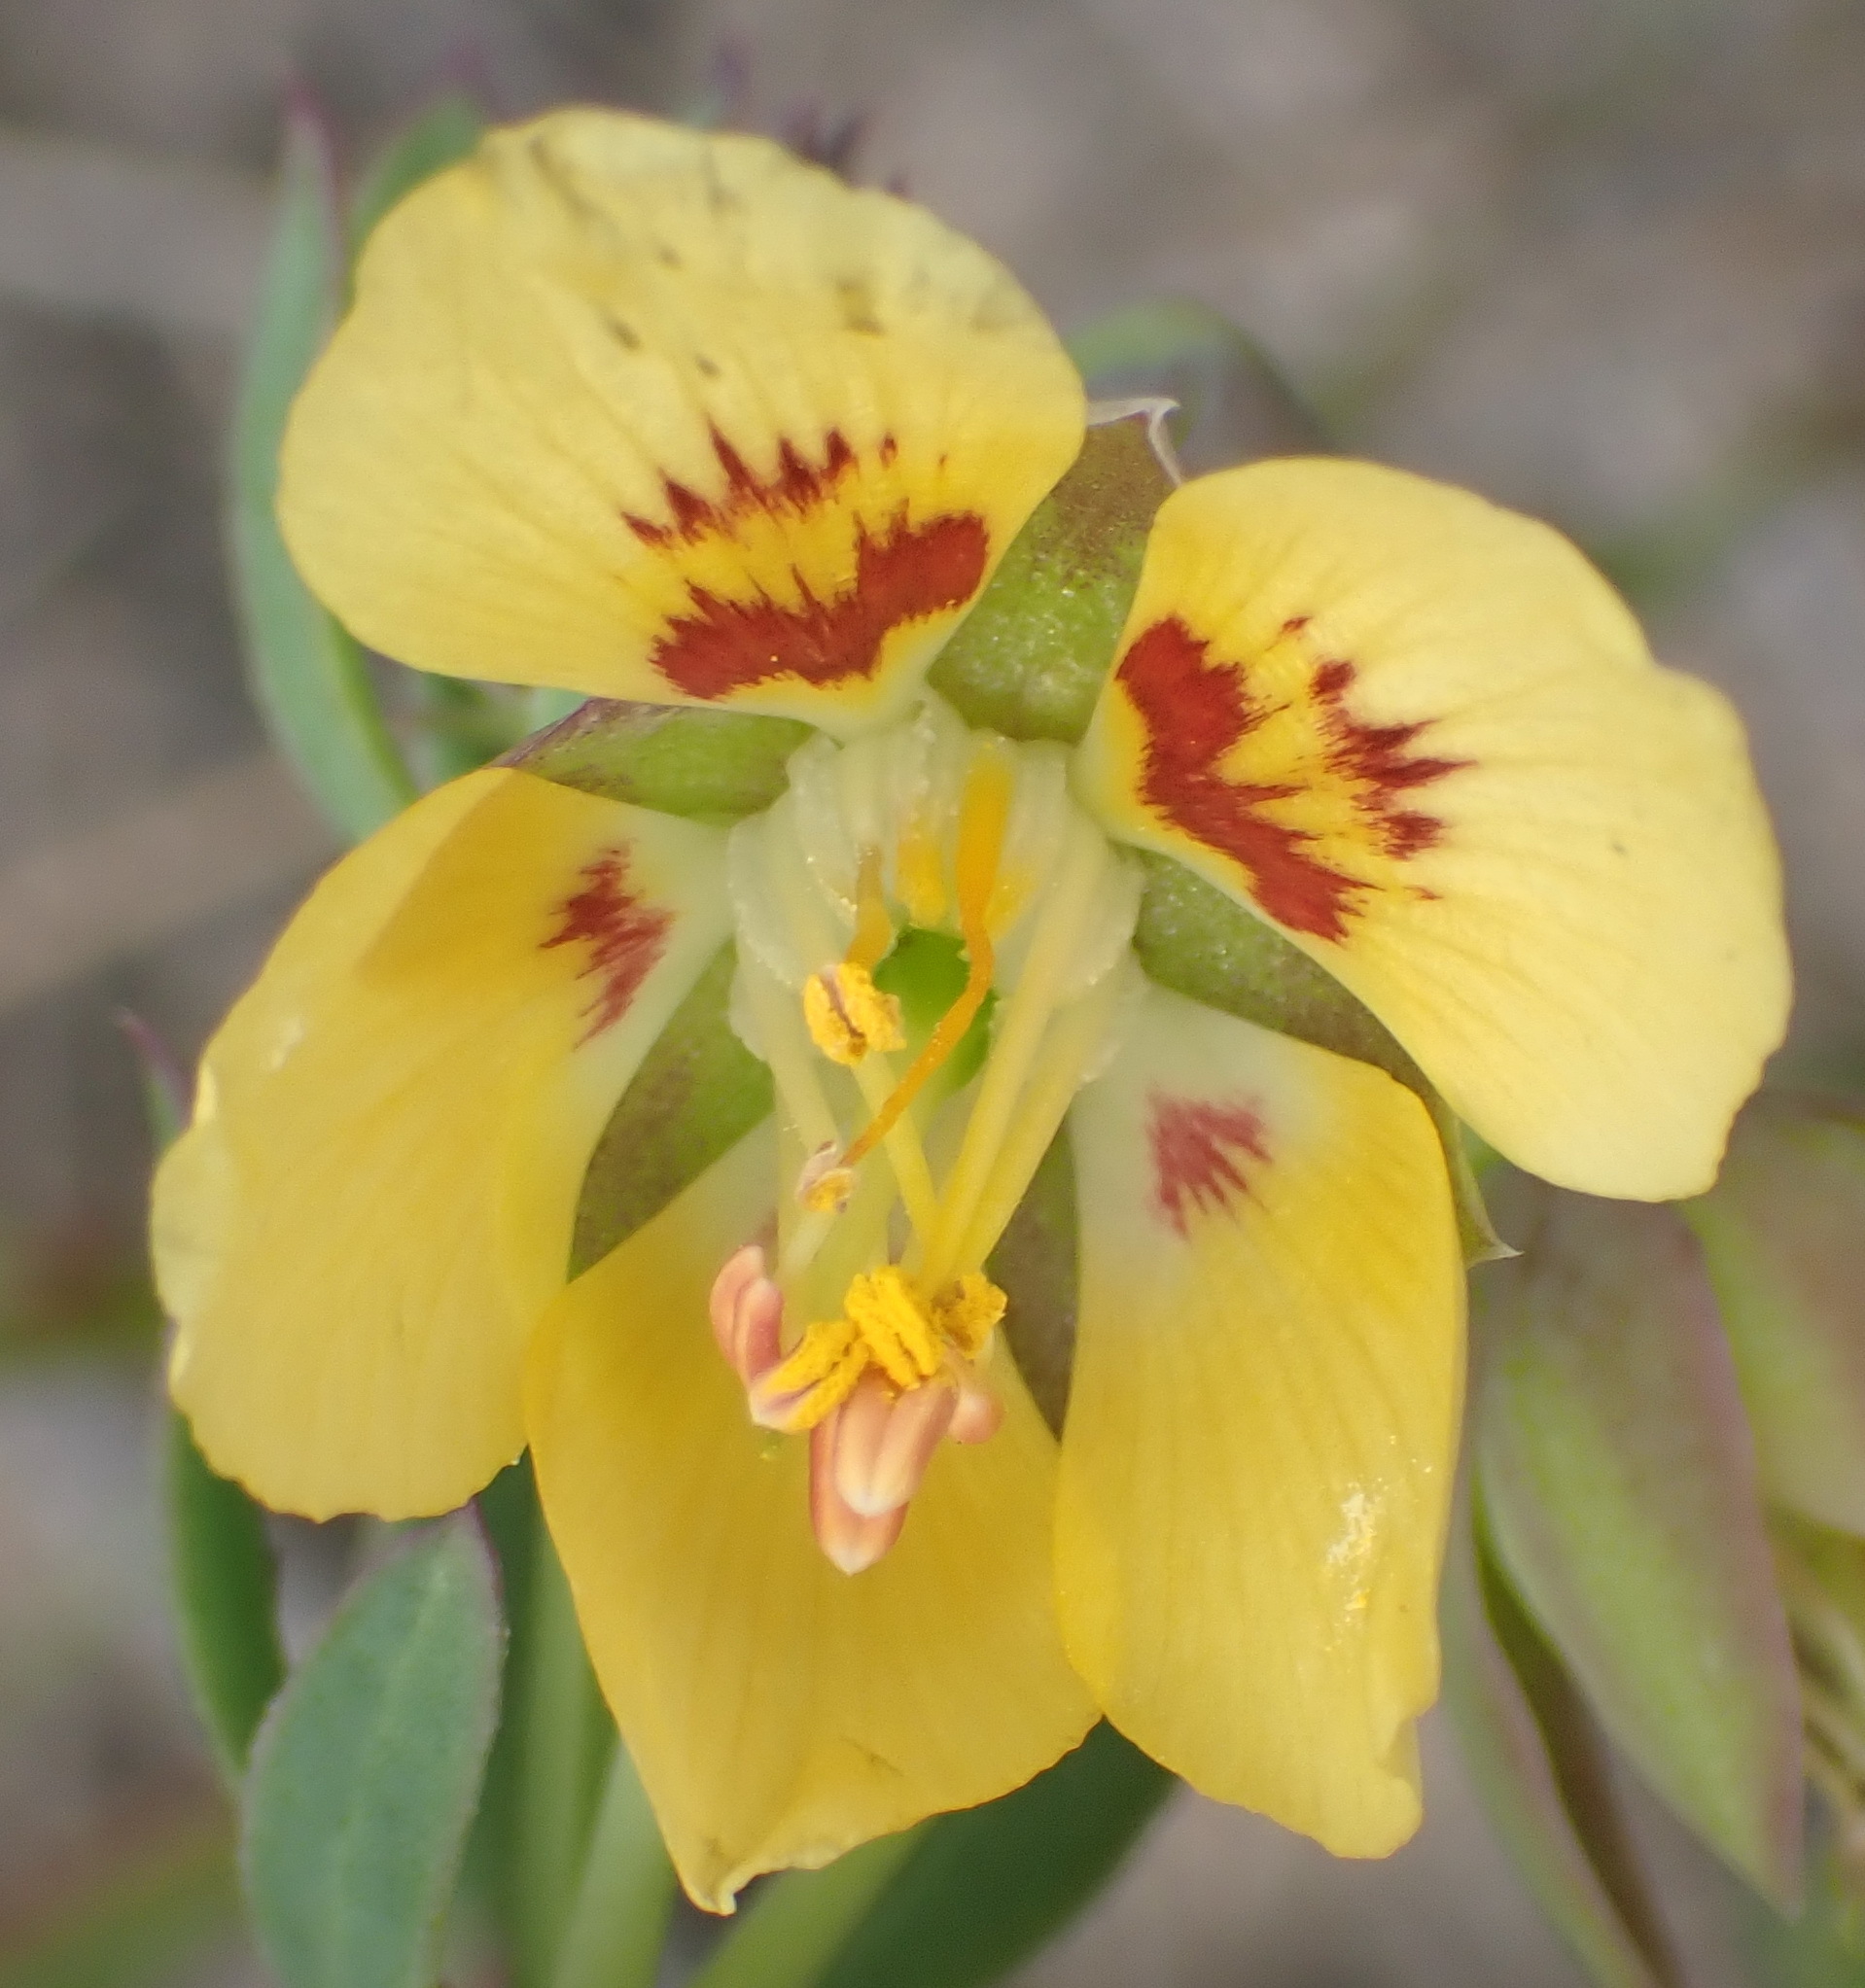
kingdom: Plantae
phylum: Tracheophyta
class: Magnoliopsida
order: Zygophyllales
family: Zygophyllaceae
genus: Roepera
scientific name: Roepera flexuosa
